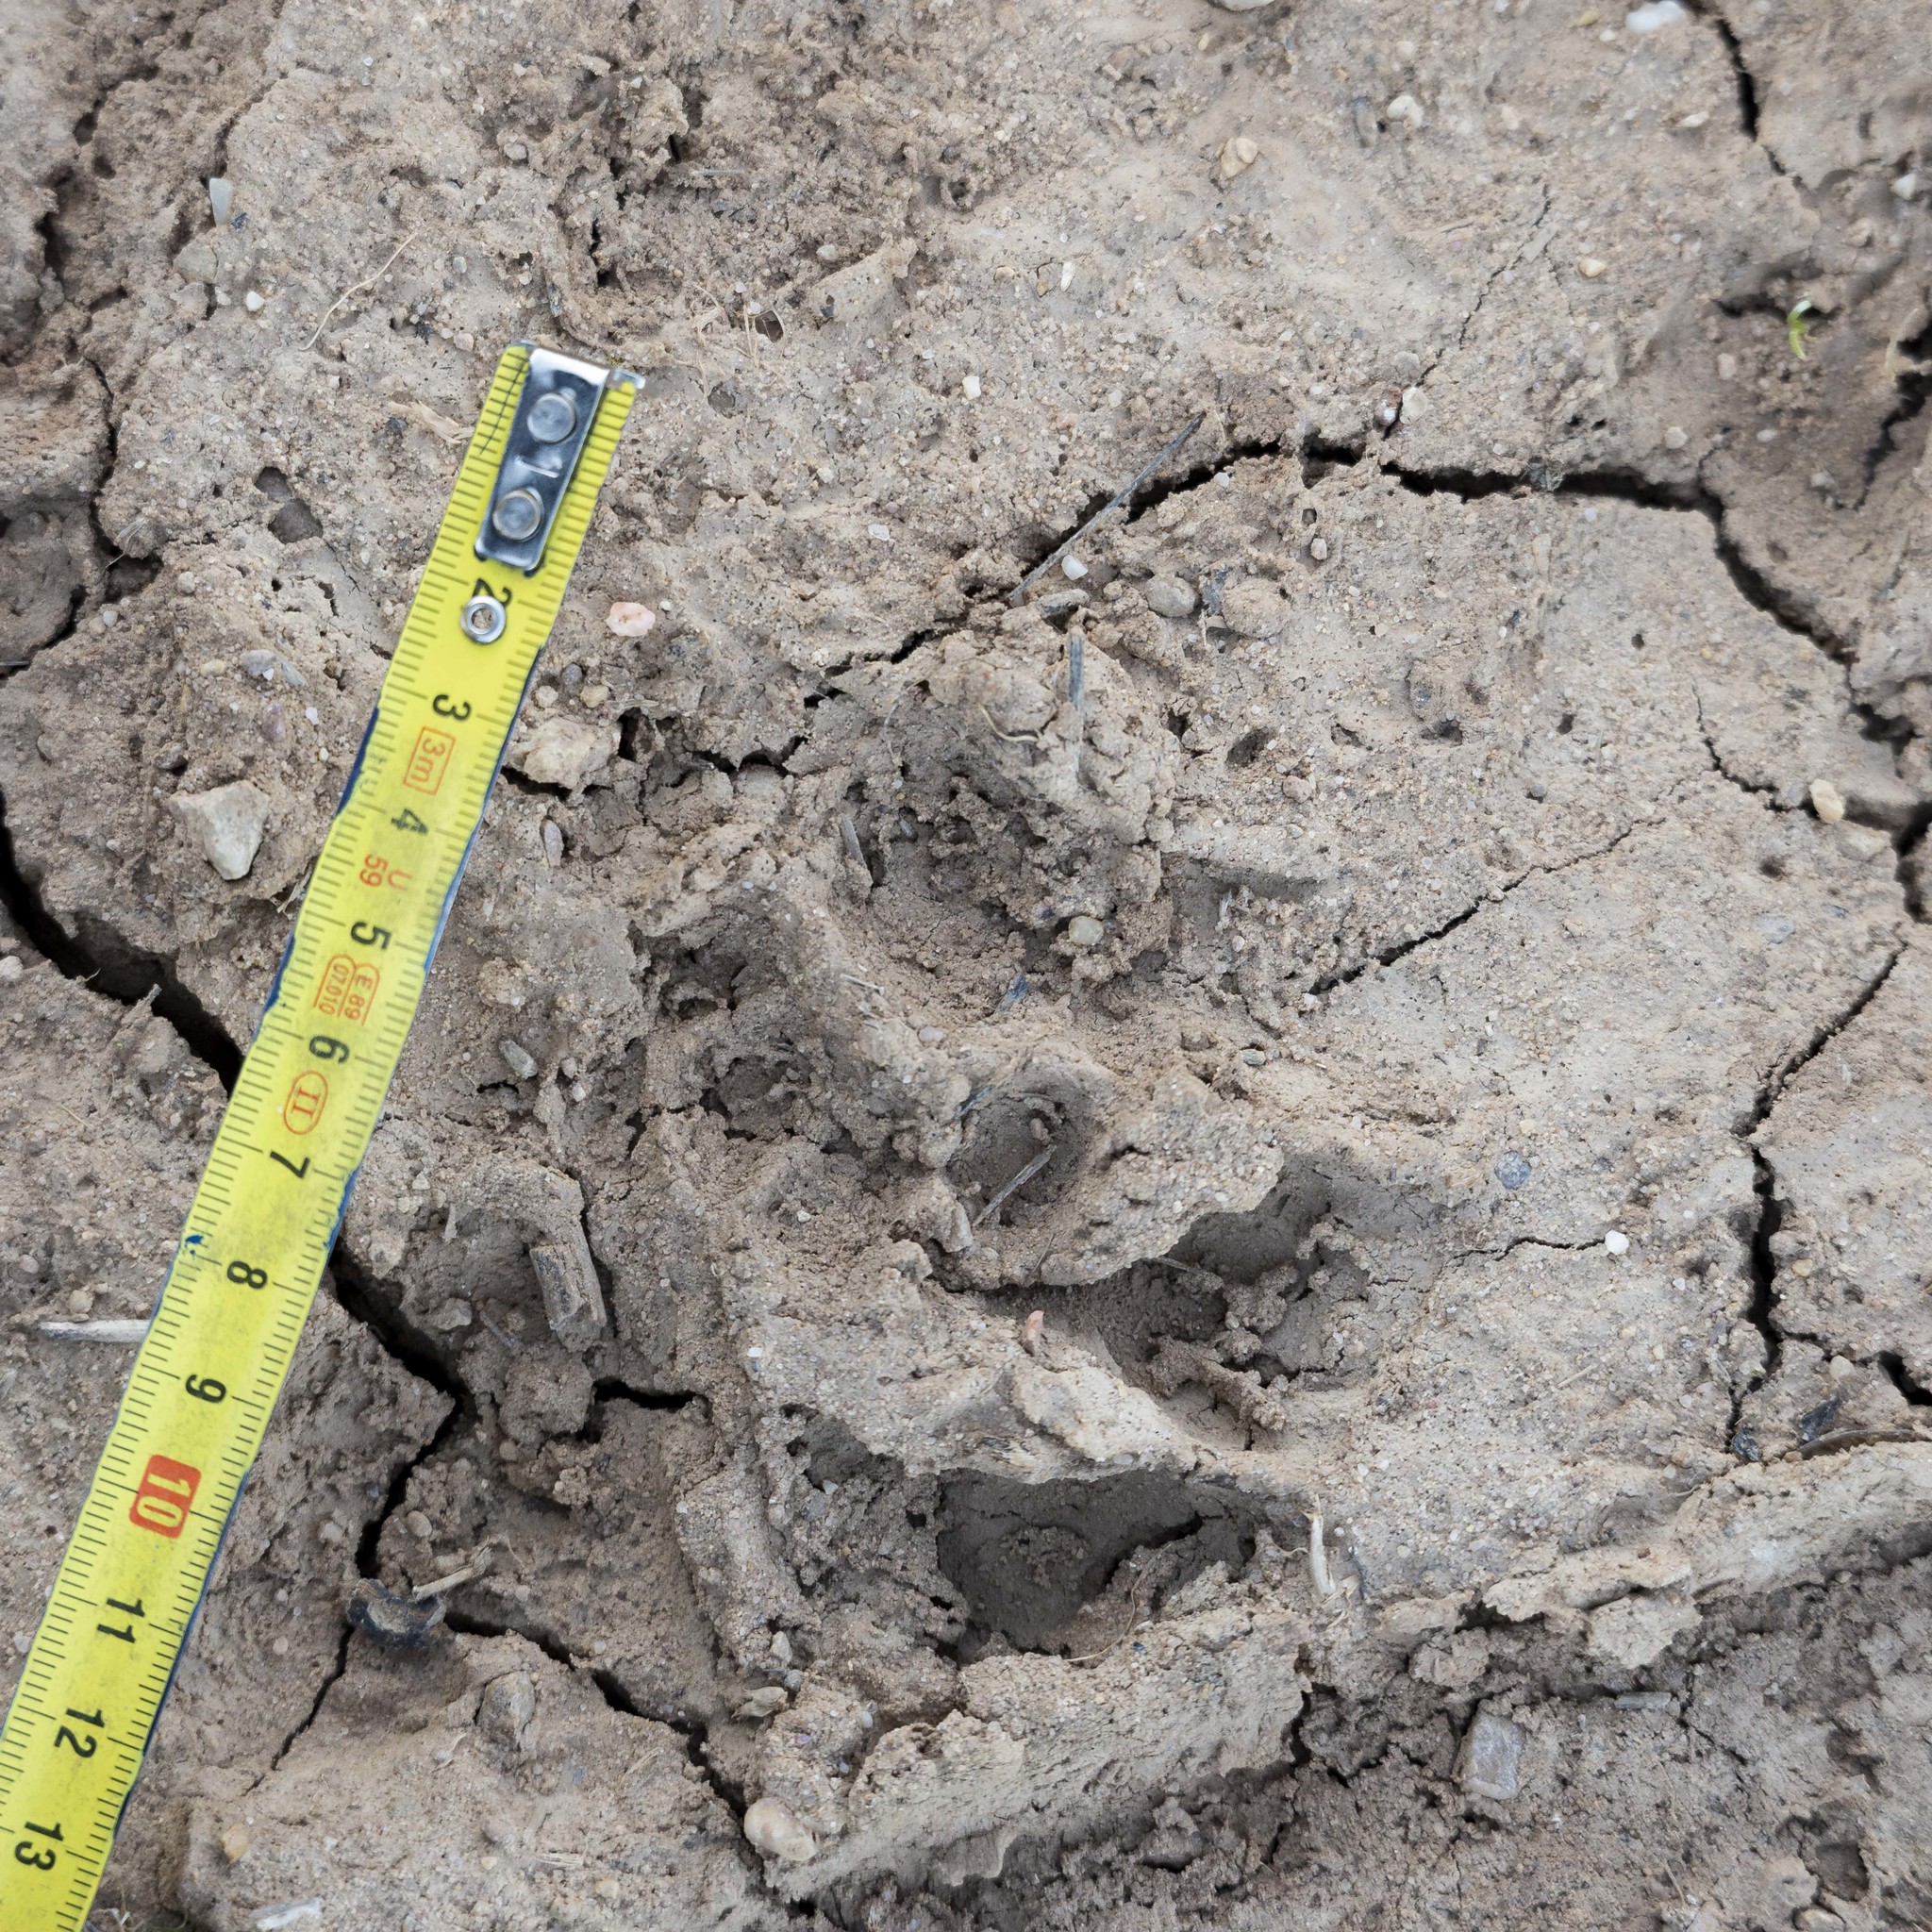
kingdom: Animalia
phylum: Chordata
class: Mammalia
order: Carnivora
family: Mustelidae
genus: Meles
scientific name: Meles meles
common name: Eurasian badger
